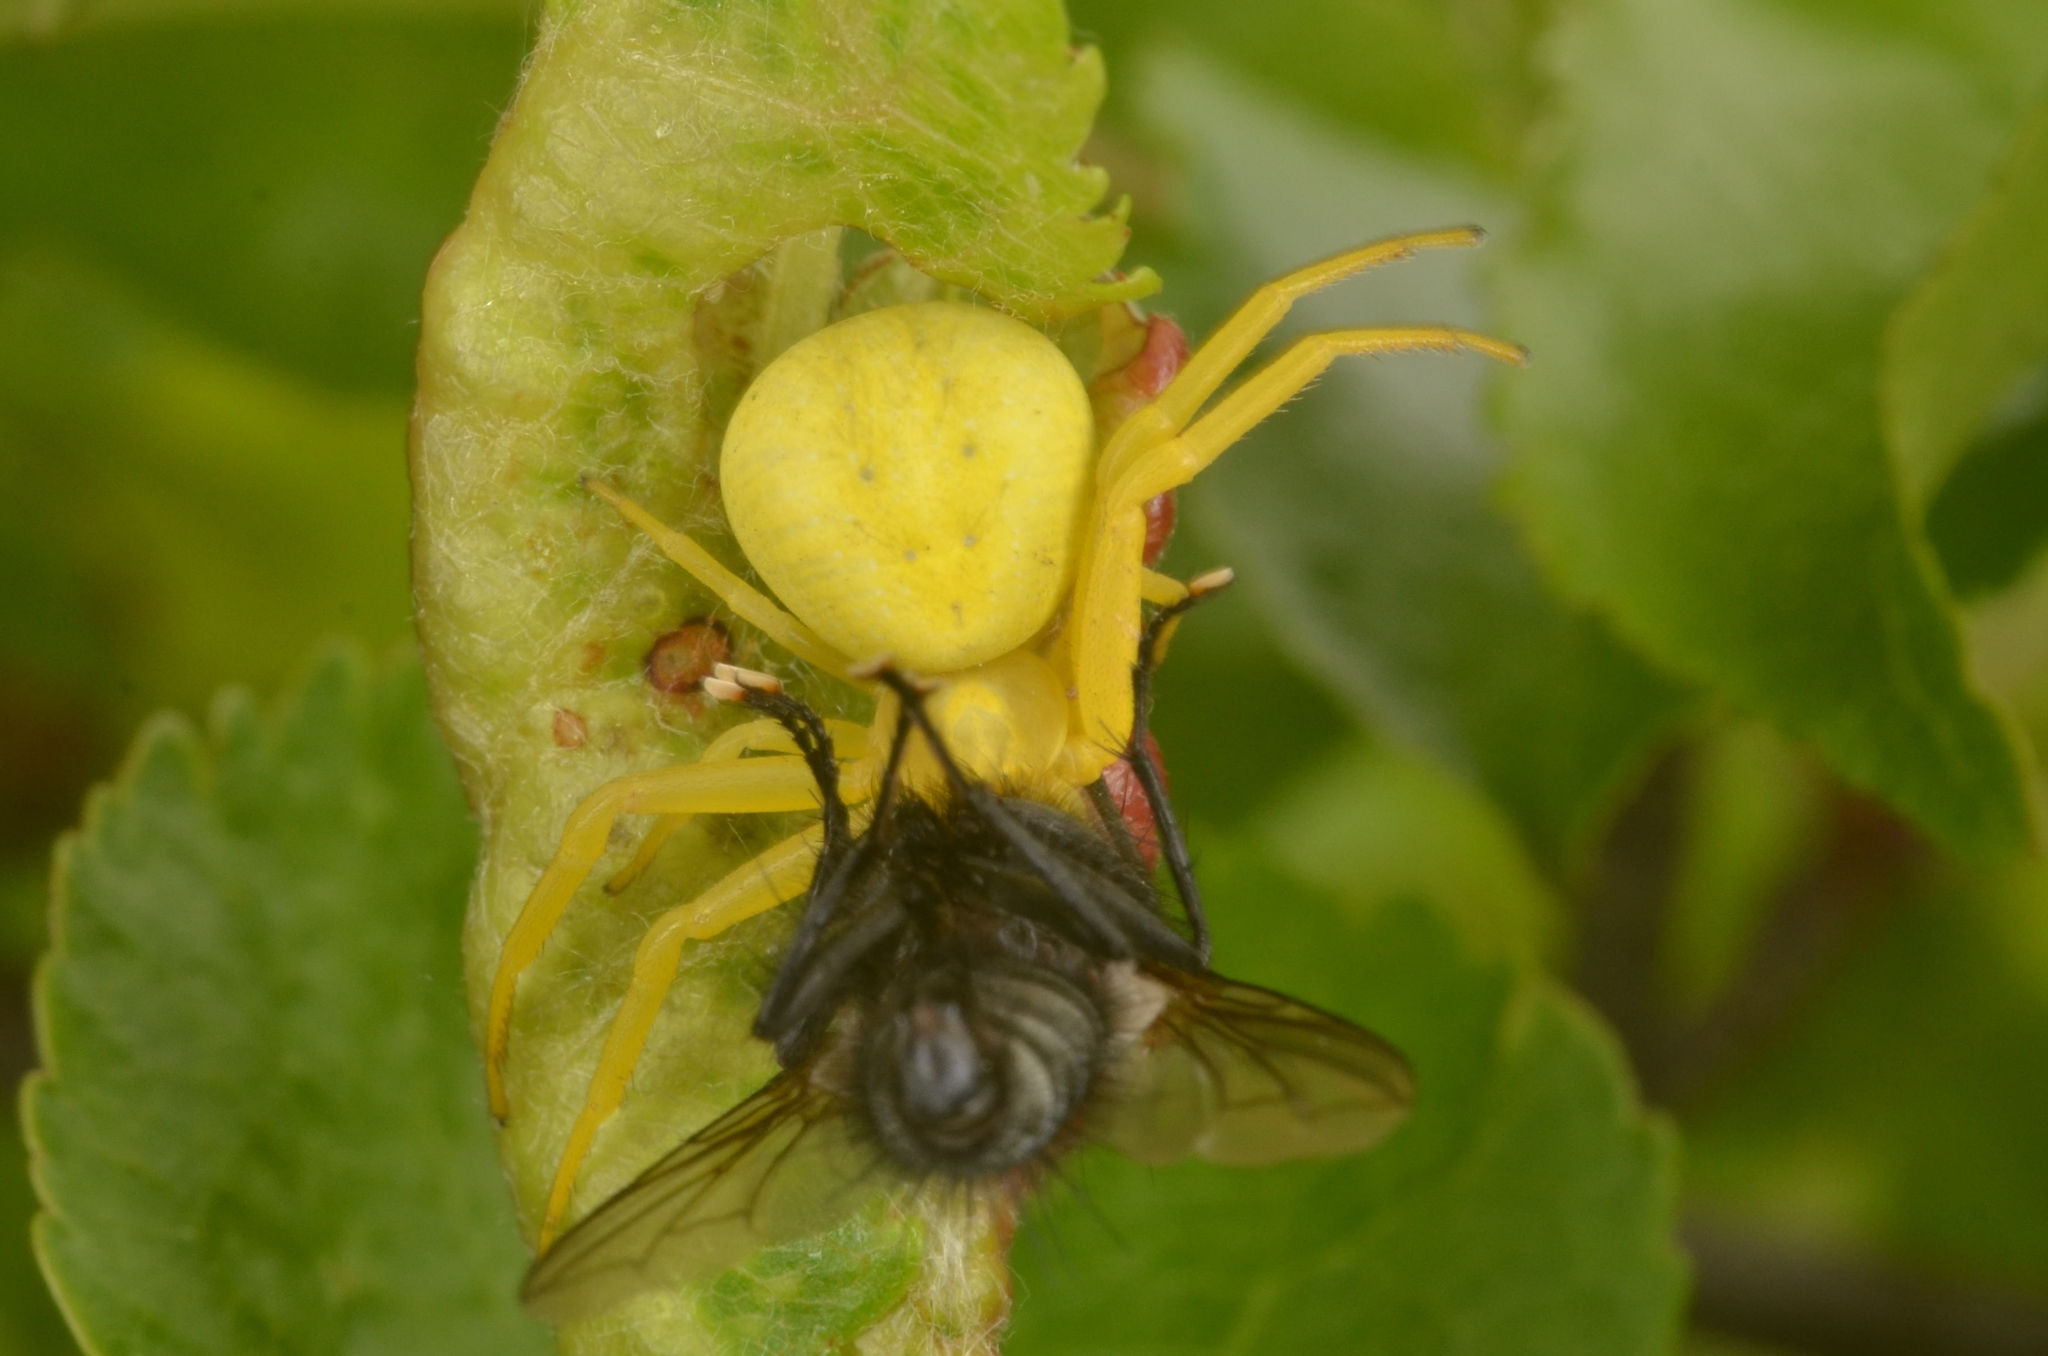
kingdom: Animalia
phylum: Arthropoda
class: Arachnida
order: Araneae
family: Thomisidae
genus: Misumena
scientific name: Misumena vatia
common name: Goldenrod crab spider
